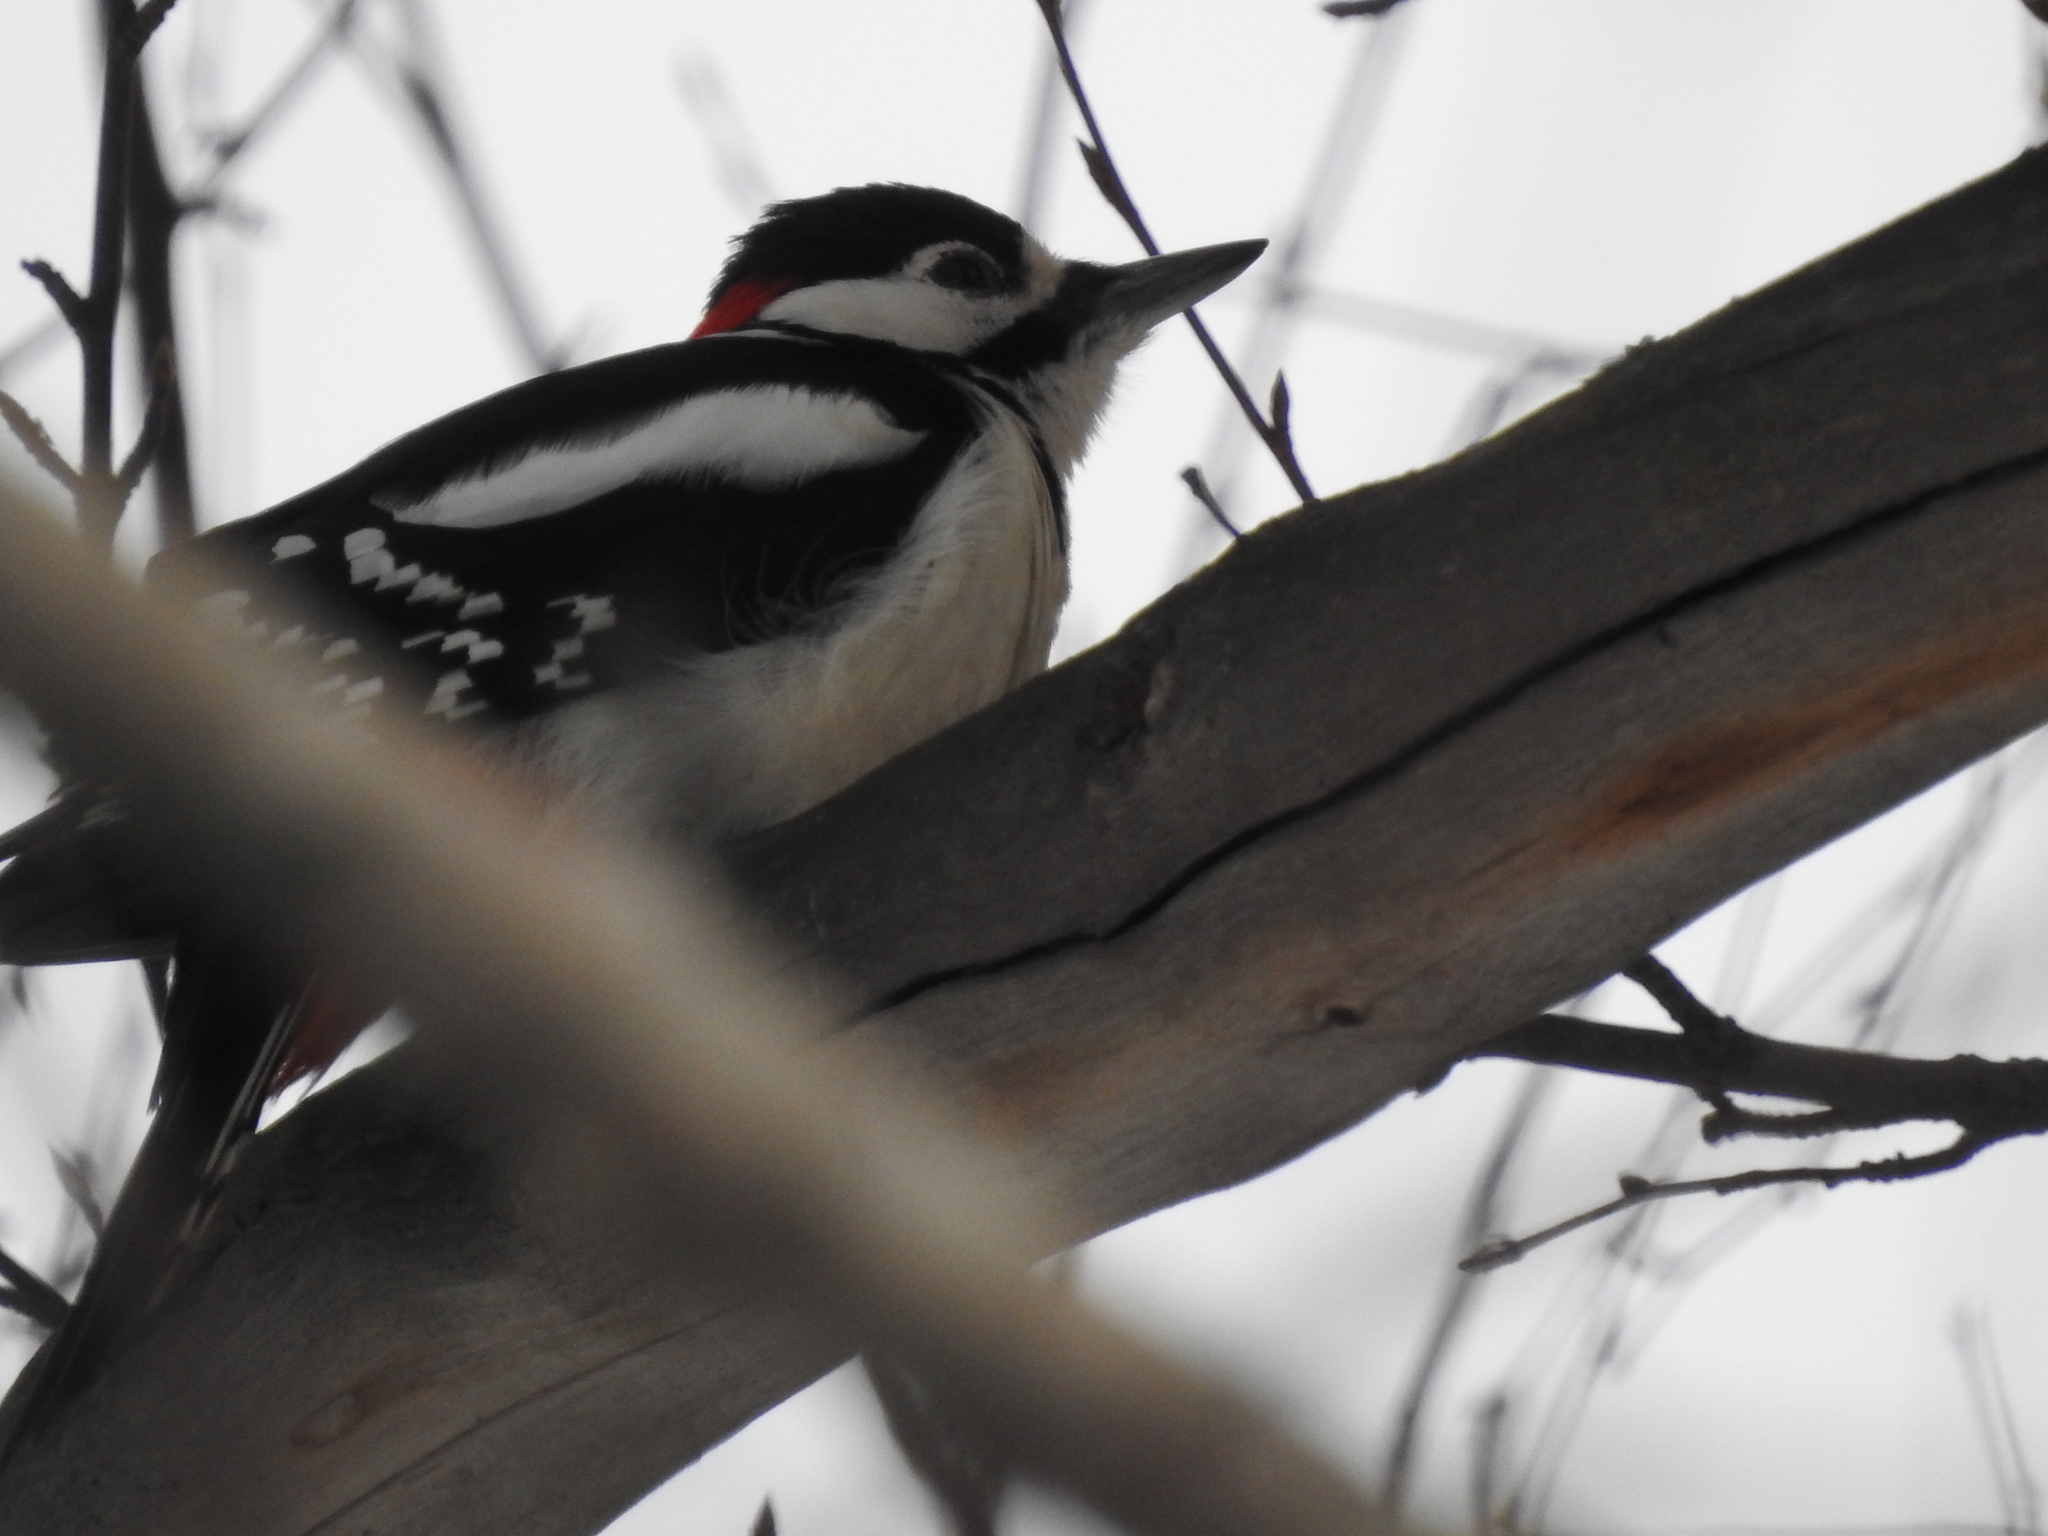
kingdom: Animalia
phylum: Chordata
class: Aves
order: Piciformes
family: Picidae
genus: Dendrocopos
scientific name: Dendrocopos major
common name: Great spotted woodpecker
